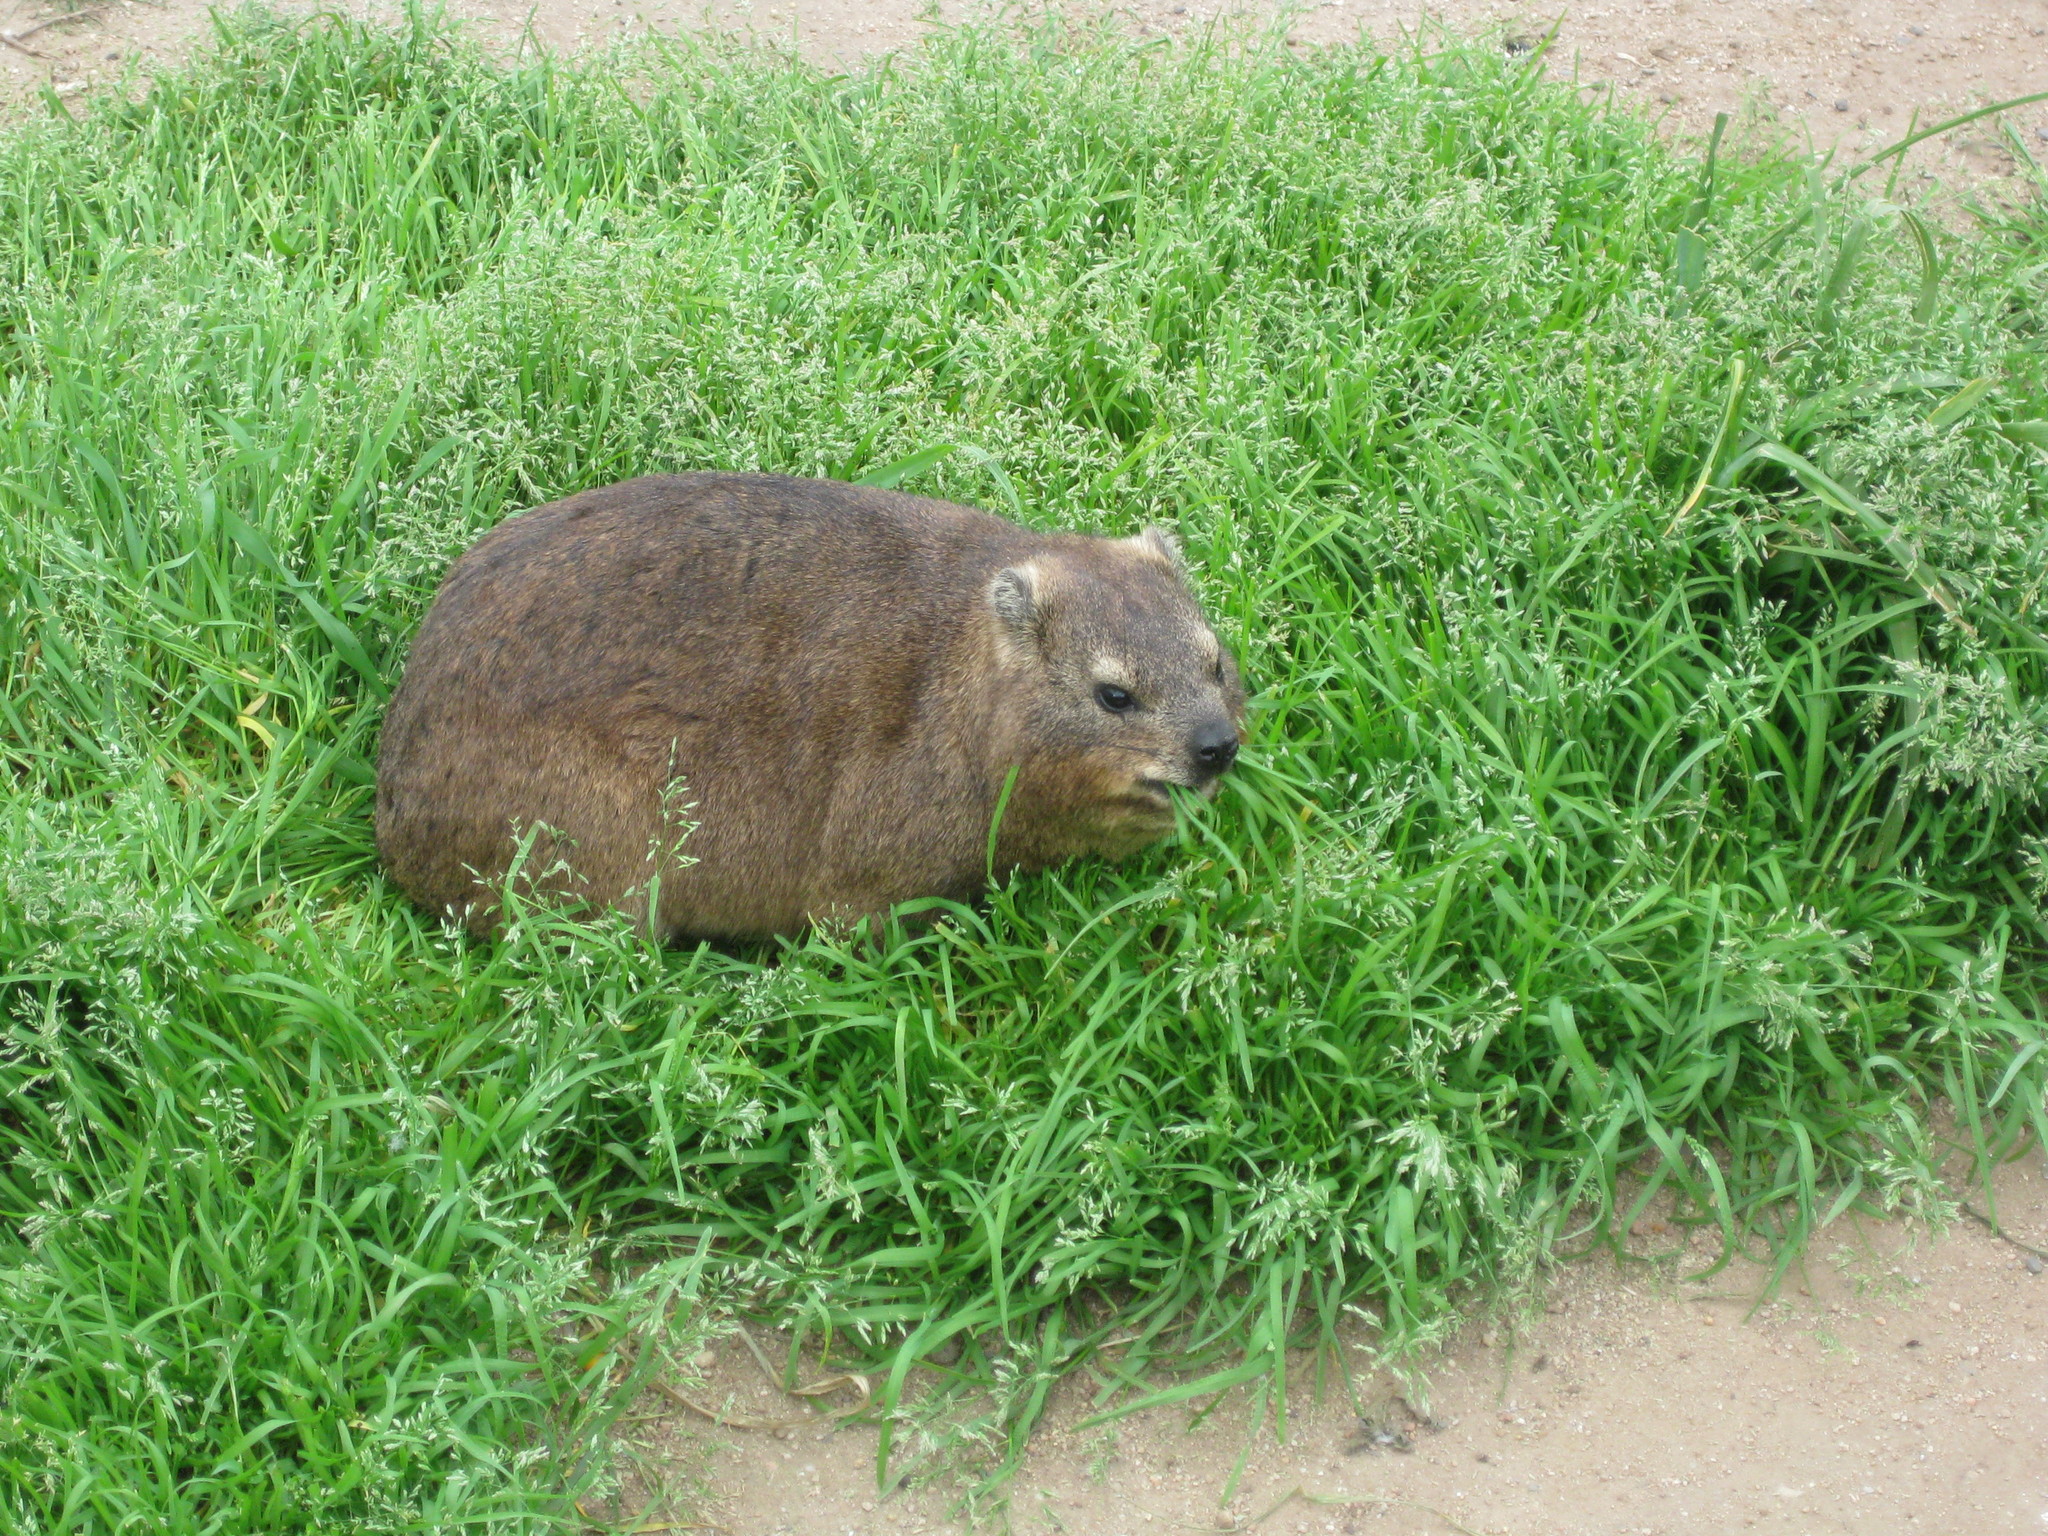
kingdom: Animalia
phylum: Chordata
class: Mammalia
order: Hyracoidea
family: Procaviidae
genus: Procavia
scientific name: Procavia capensis
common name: Rock hyrax
